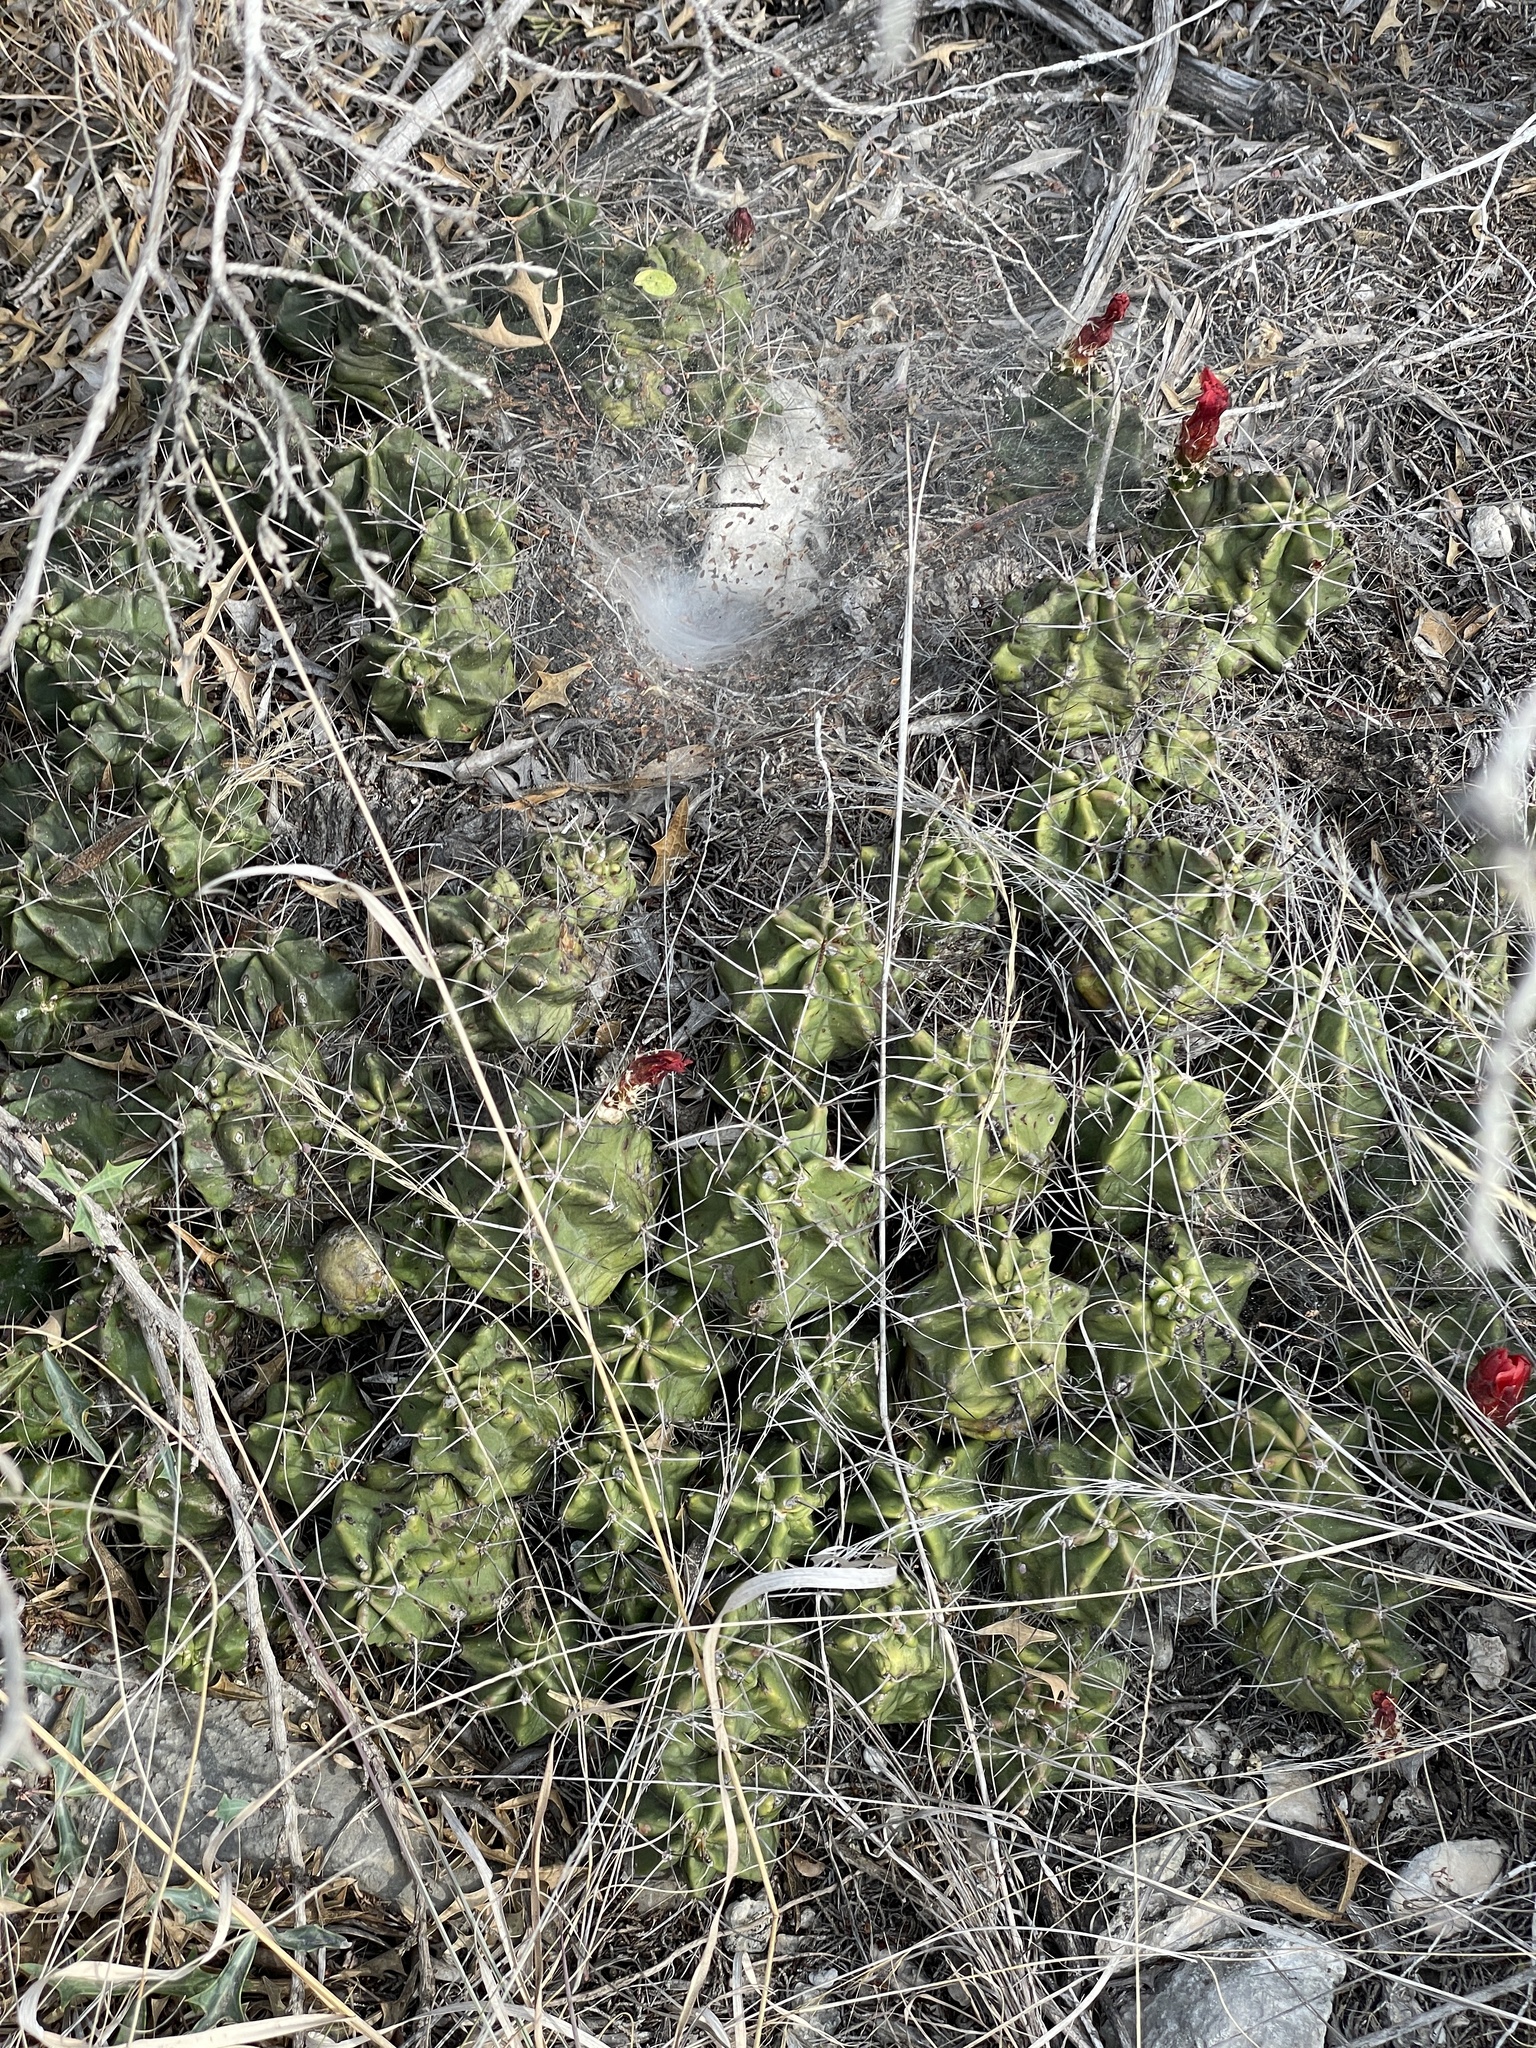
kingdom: Plantae
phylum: Tracheophyta
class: Magnoliopsida
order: Caryophyllales
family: Cactaceae
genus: Echinocereus
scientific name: Echinocereus coccineus
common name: Scarlet hedgehog cactus
